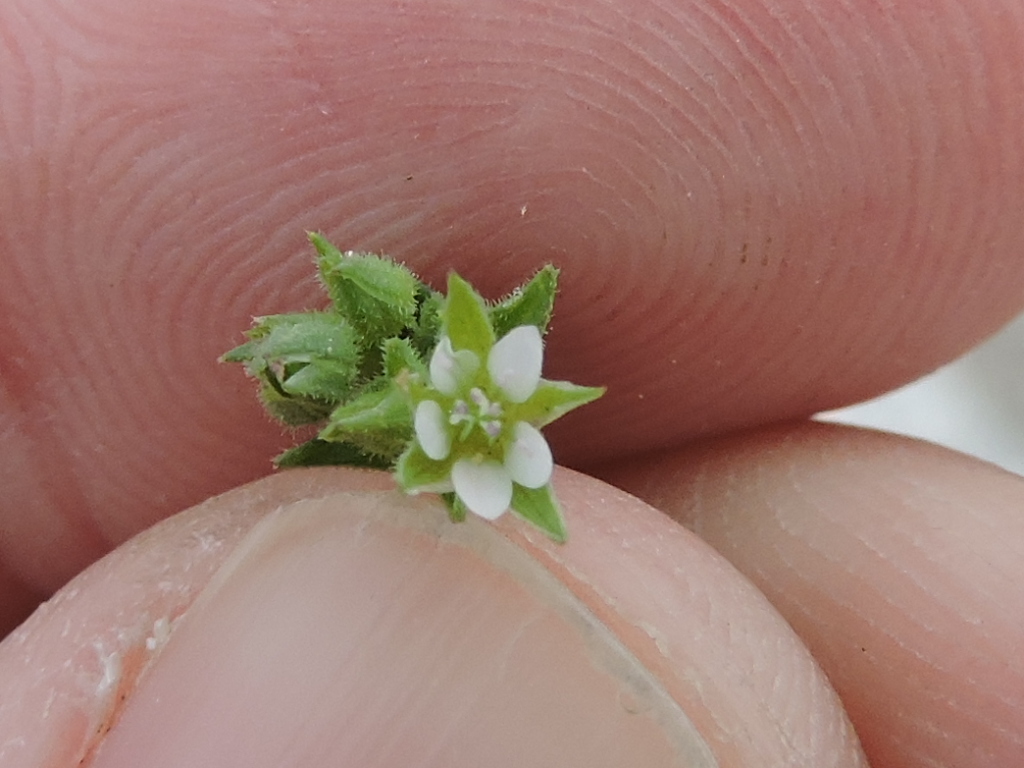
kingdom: Plantae
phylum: Tracheophyta
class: Magnoliopsida
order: Caryophyllales
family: Caryophyllaceae
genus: Arenaria
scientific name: Arenaria serpyllifolia
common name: Thyme-leaved sandwort
